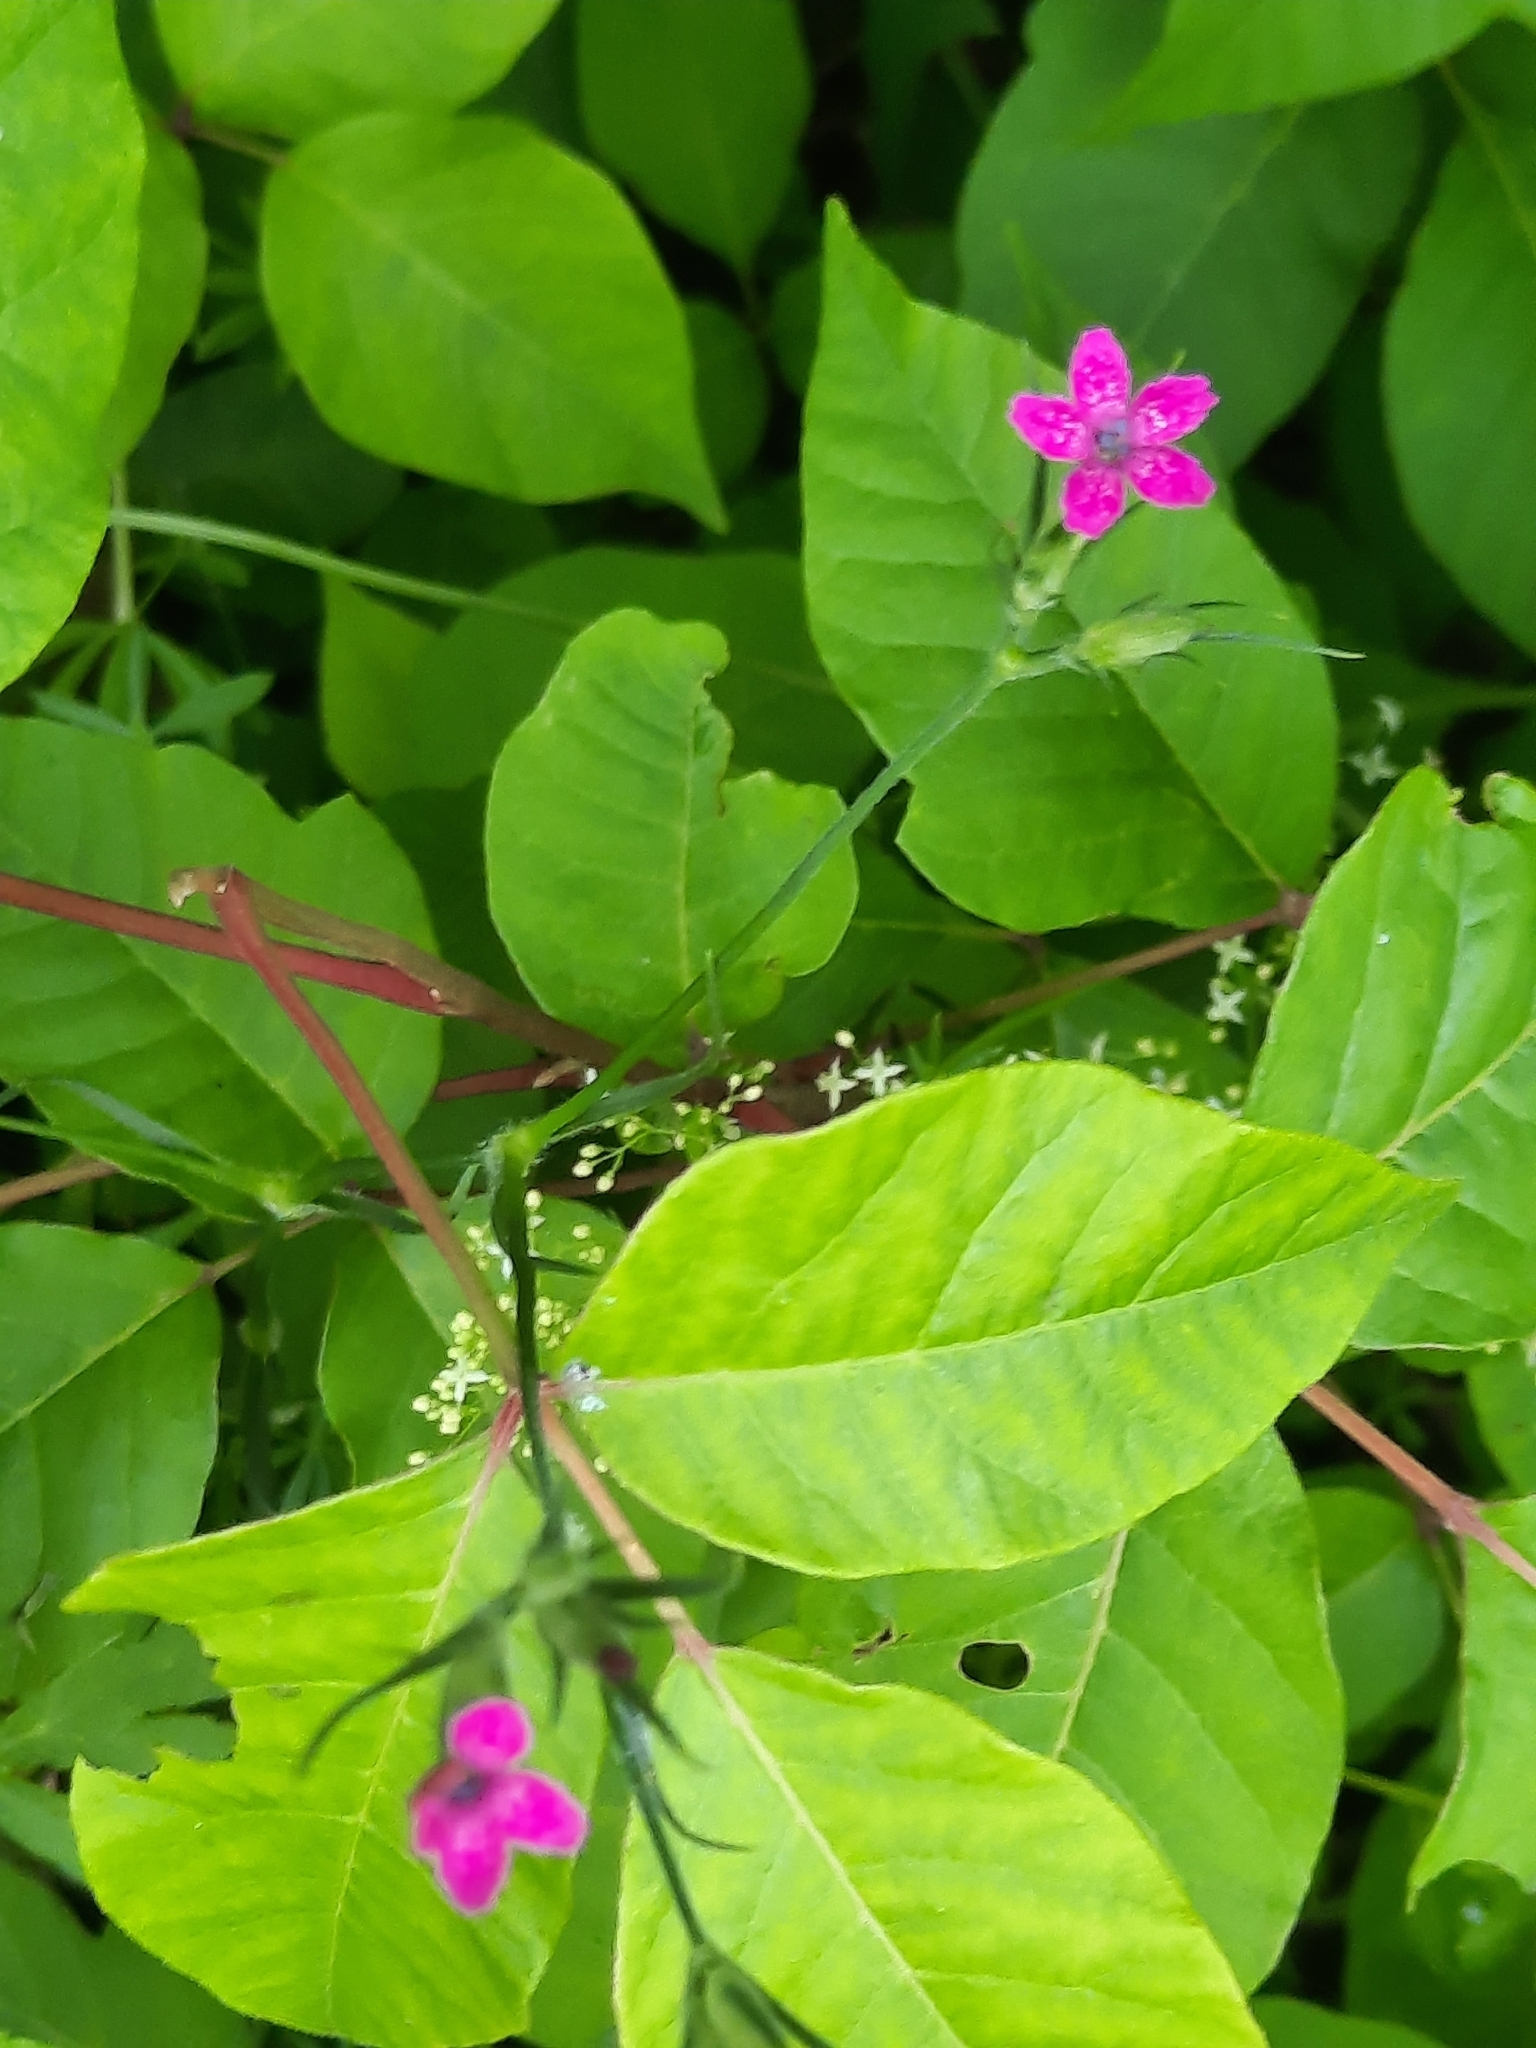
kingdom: Plantae
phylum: Tracheophyta
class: Magnoliopsida
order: Caryophyllales
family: Caryophyllaceae
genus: Dianthus
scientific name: Dianthus armeria
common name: Deptford pink
